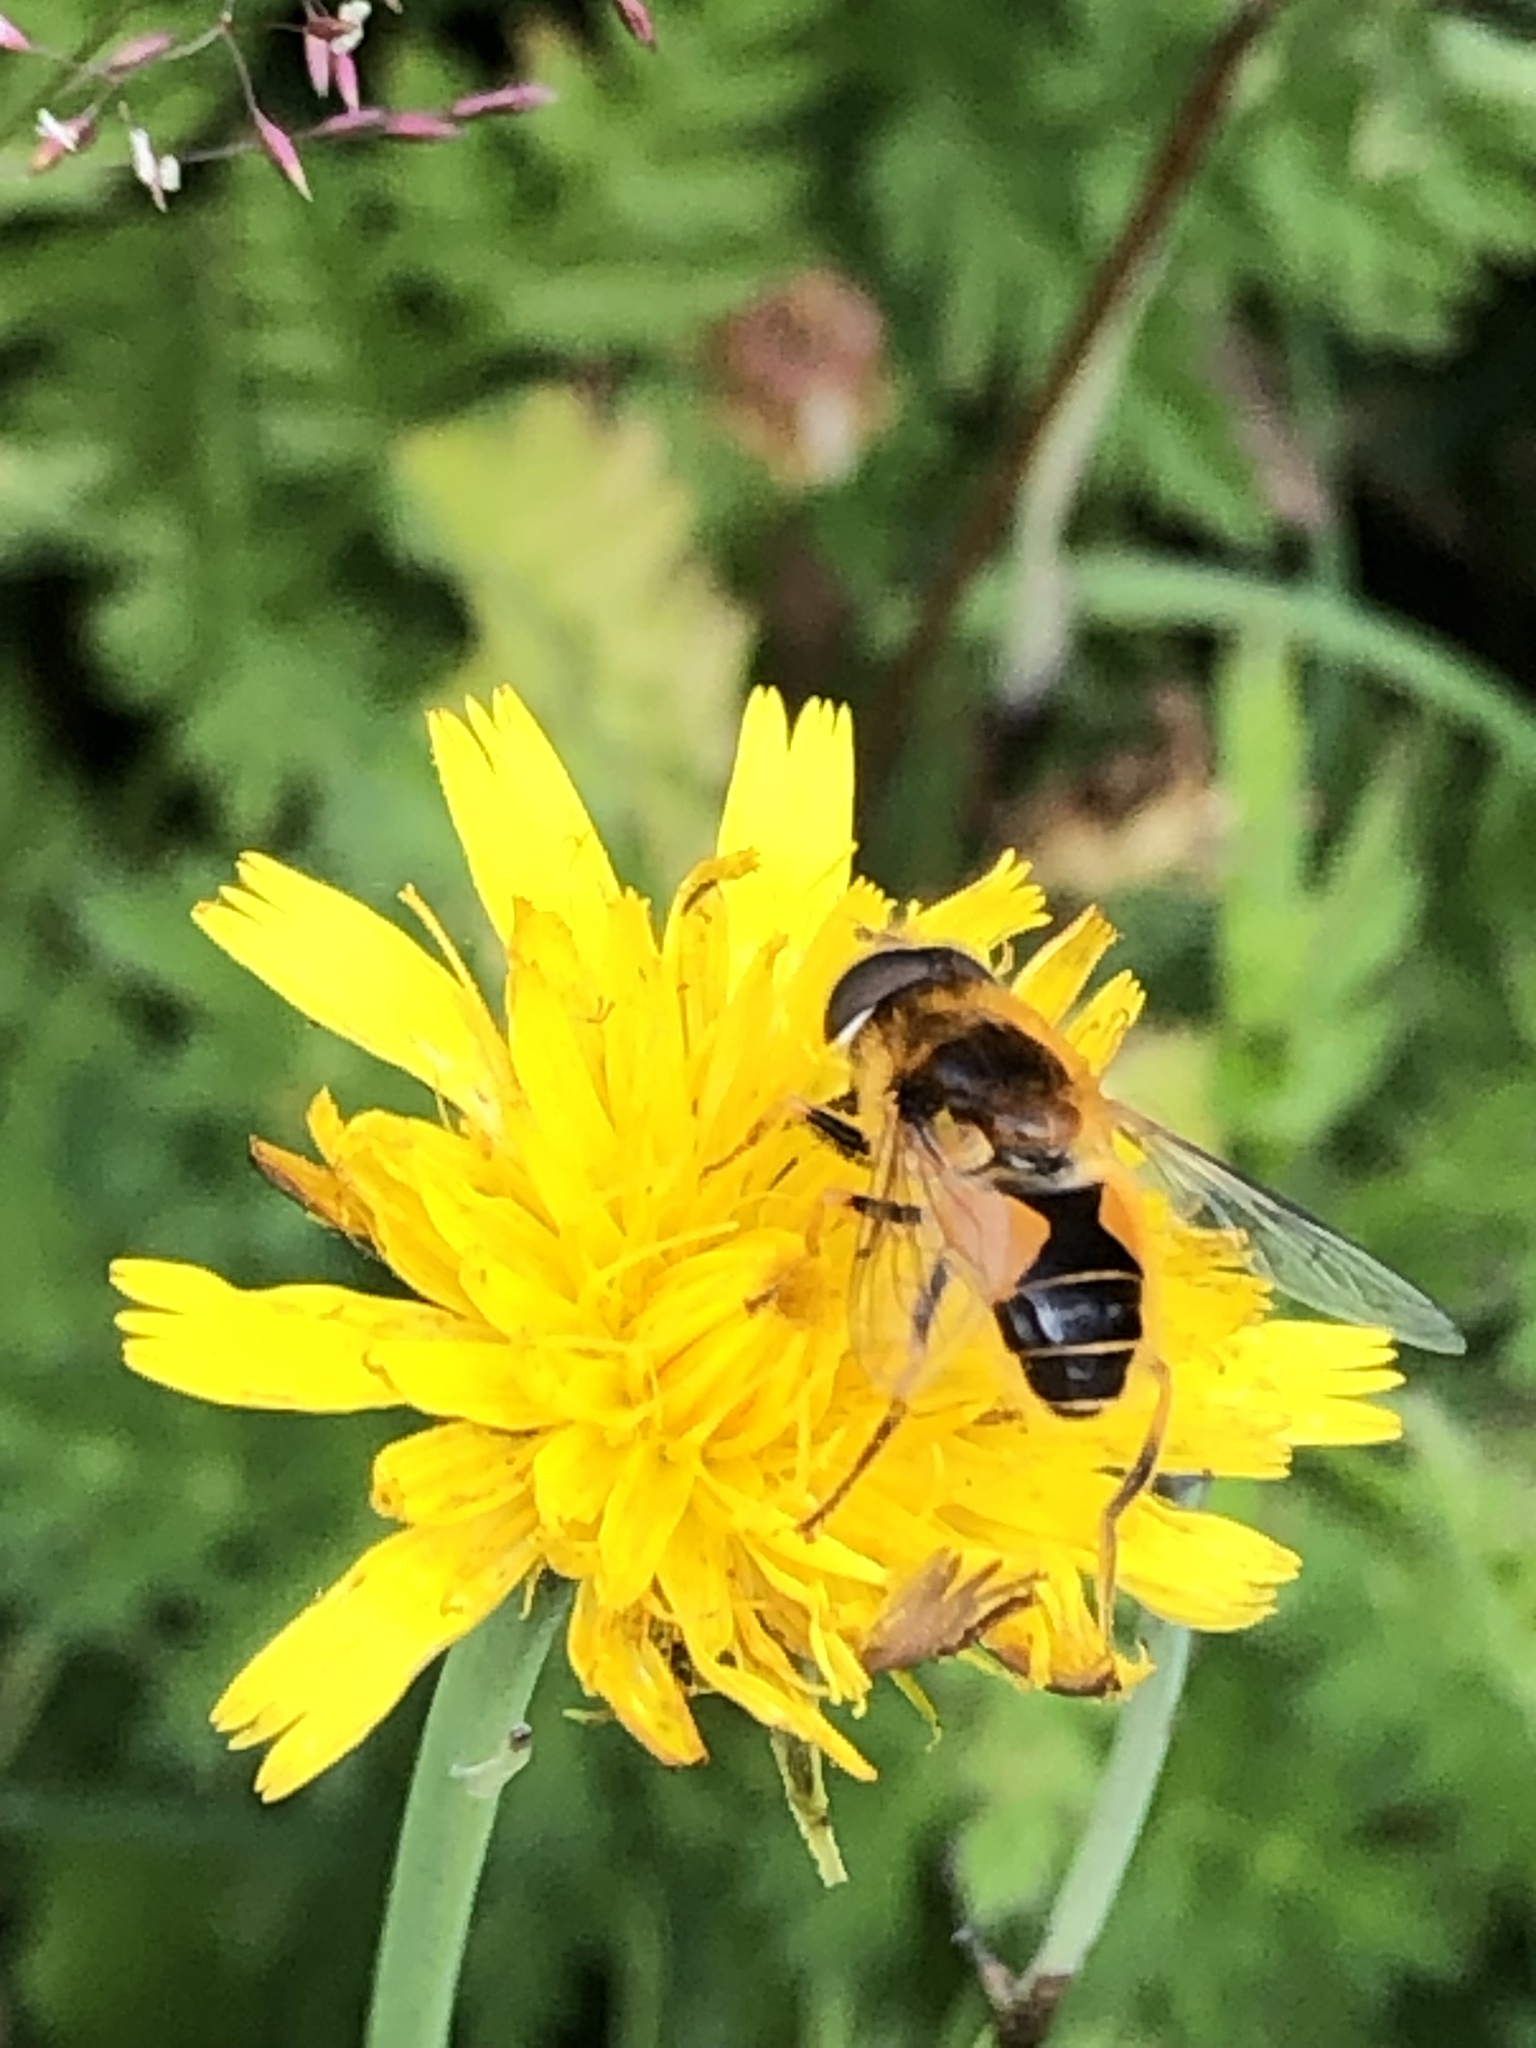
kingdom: Animalia
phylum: Arthropoda
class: Insecta
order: Diptera
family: Syrphidae
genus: Eristalis
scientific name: Eristalis jugorum
